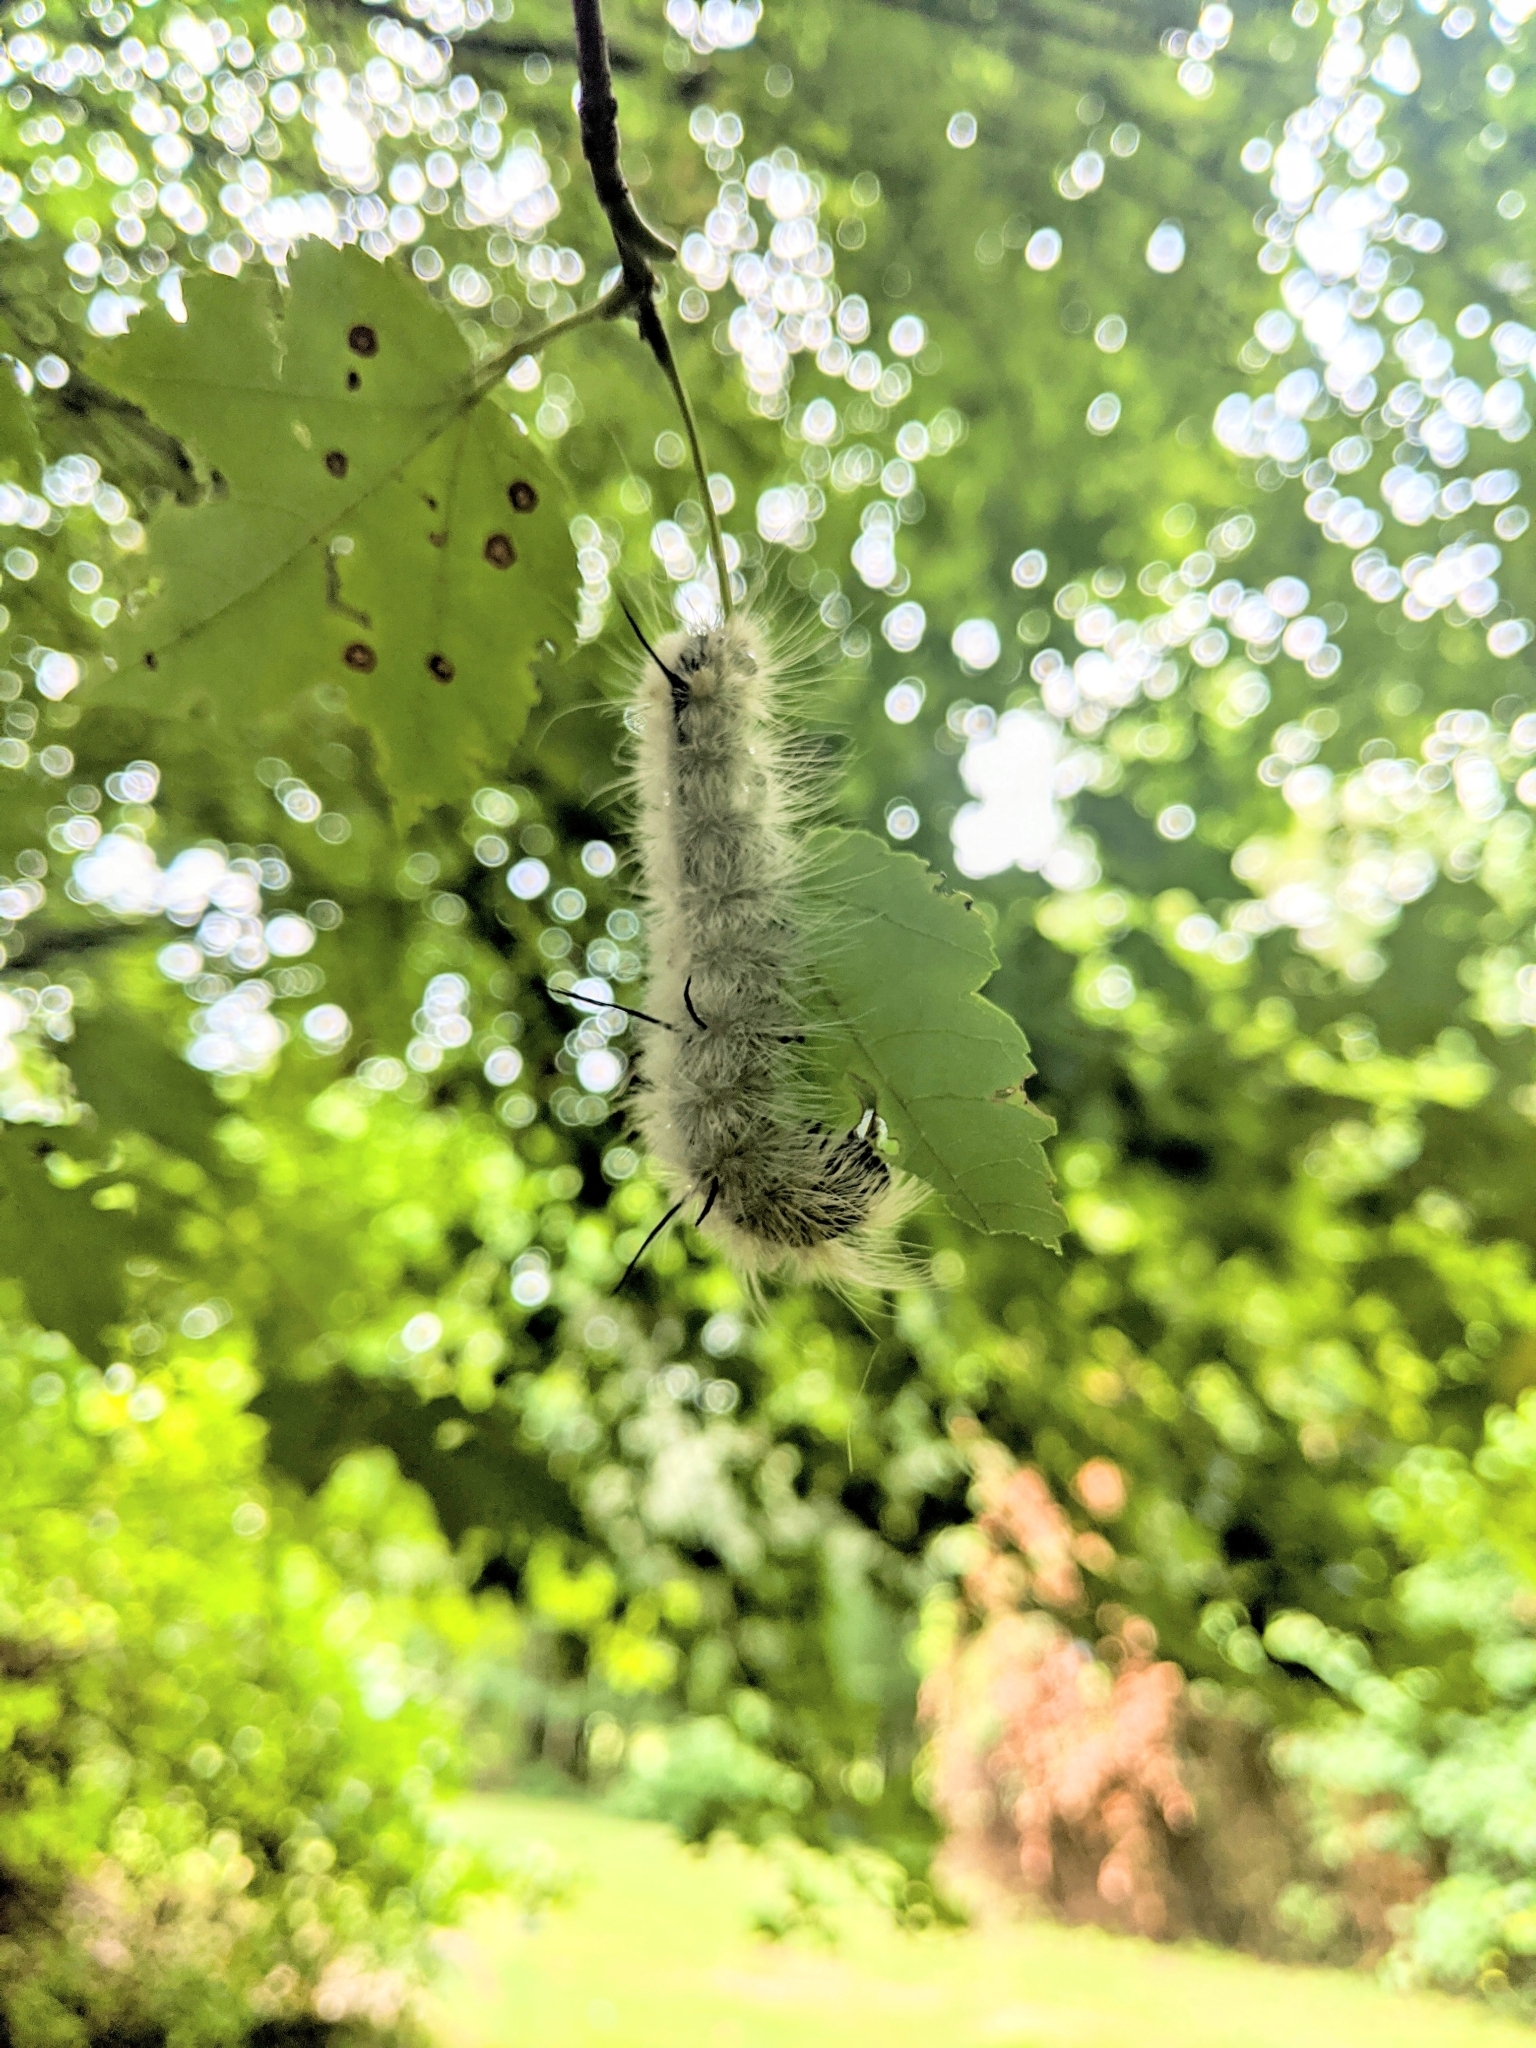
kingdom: Animalia
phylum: Arthropoda
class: Insecta
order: Lepidoptera
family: Noctuidae
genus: Acronicta
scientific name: Acronicta americana
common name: American dagger
